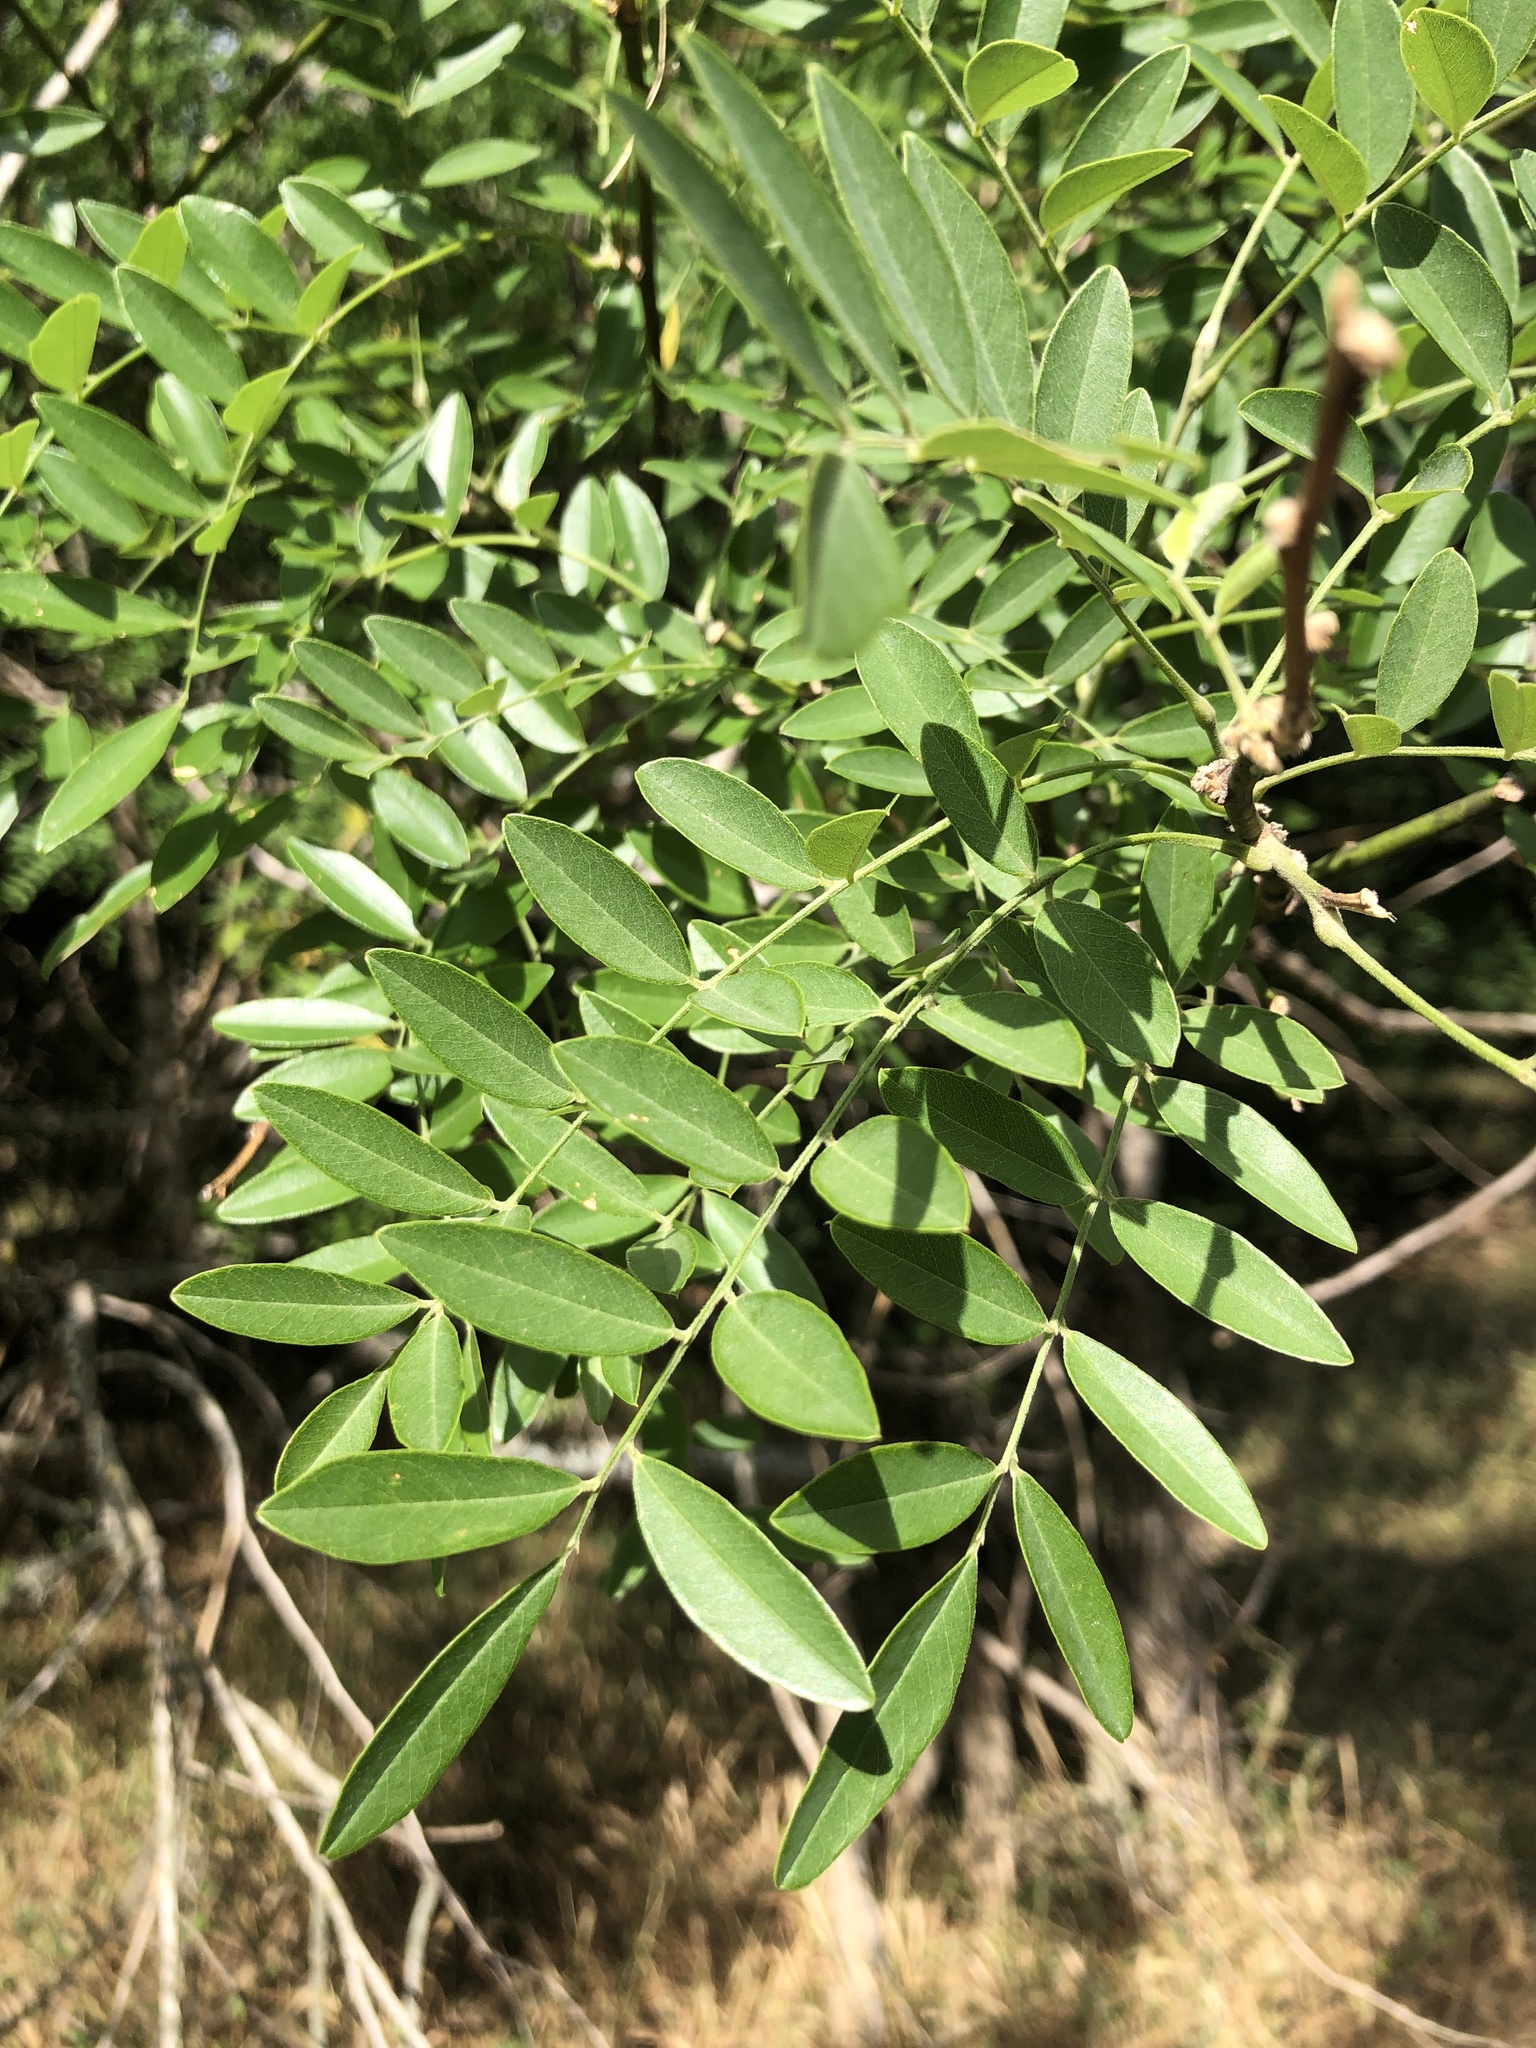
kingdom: Plantae
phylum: Tracheophyta
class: Magnoliopsida
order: Fabales
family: Fabaceae
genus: Styphnolobium
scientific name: Styphnolobium affine
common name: Texas sophora
